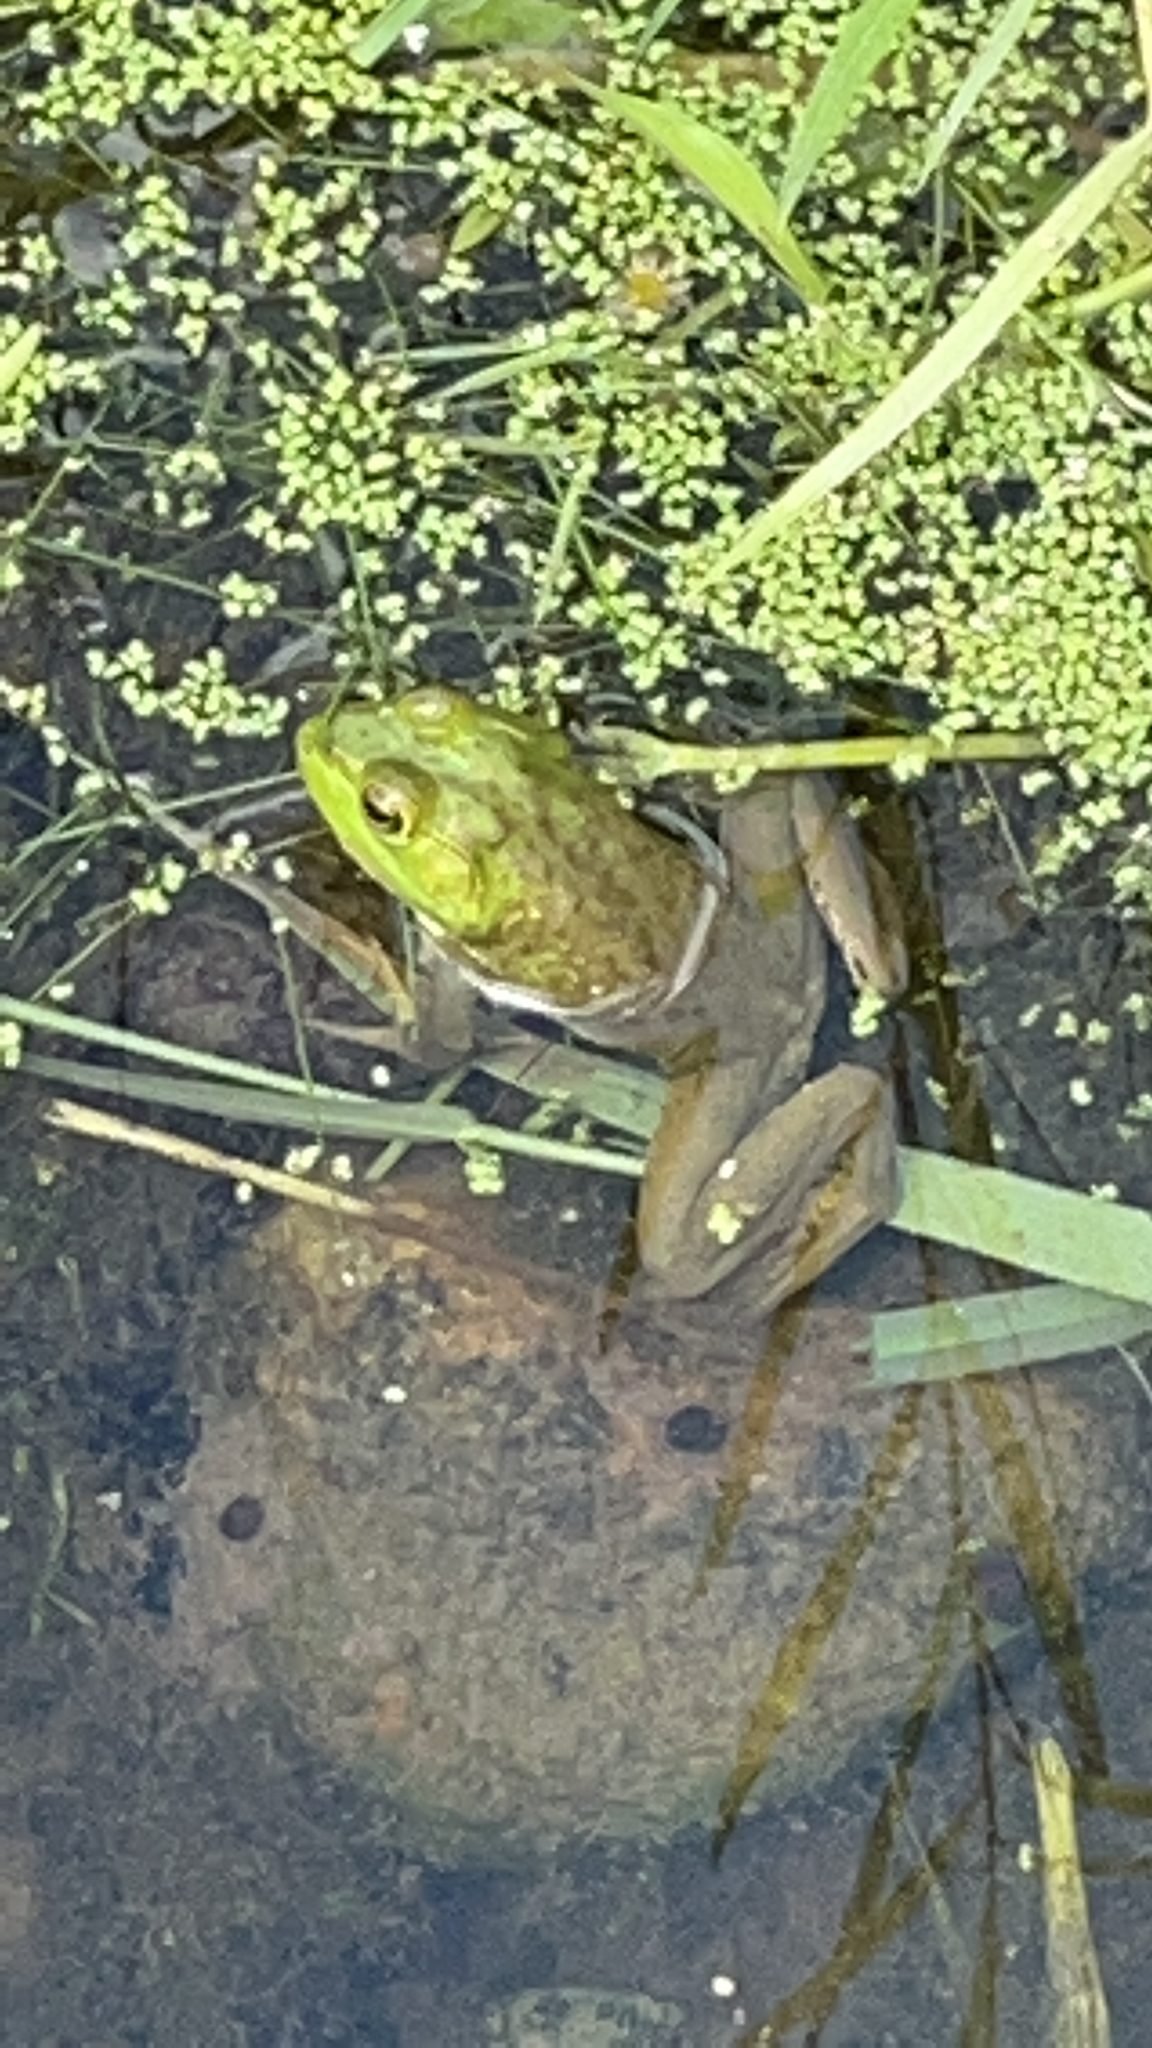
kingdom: Animalia
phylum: Chordata
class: Amphibia
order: Anura
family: Ranidae
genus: Lithobates
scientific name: Lithobates catesbeianus
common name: American bullfrog
